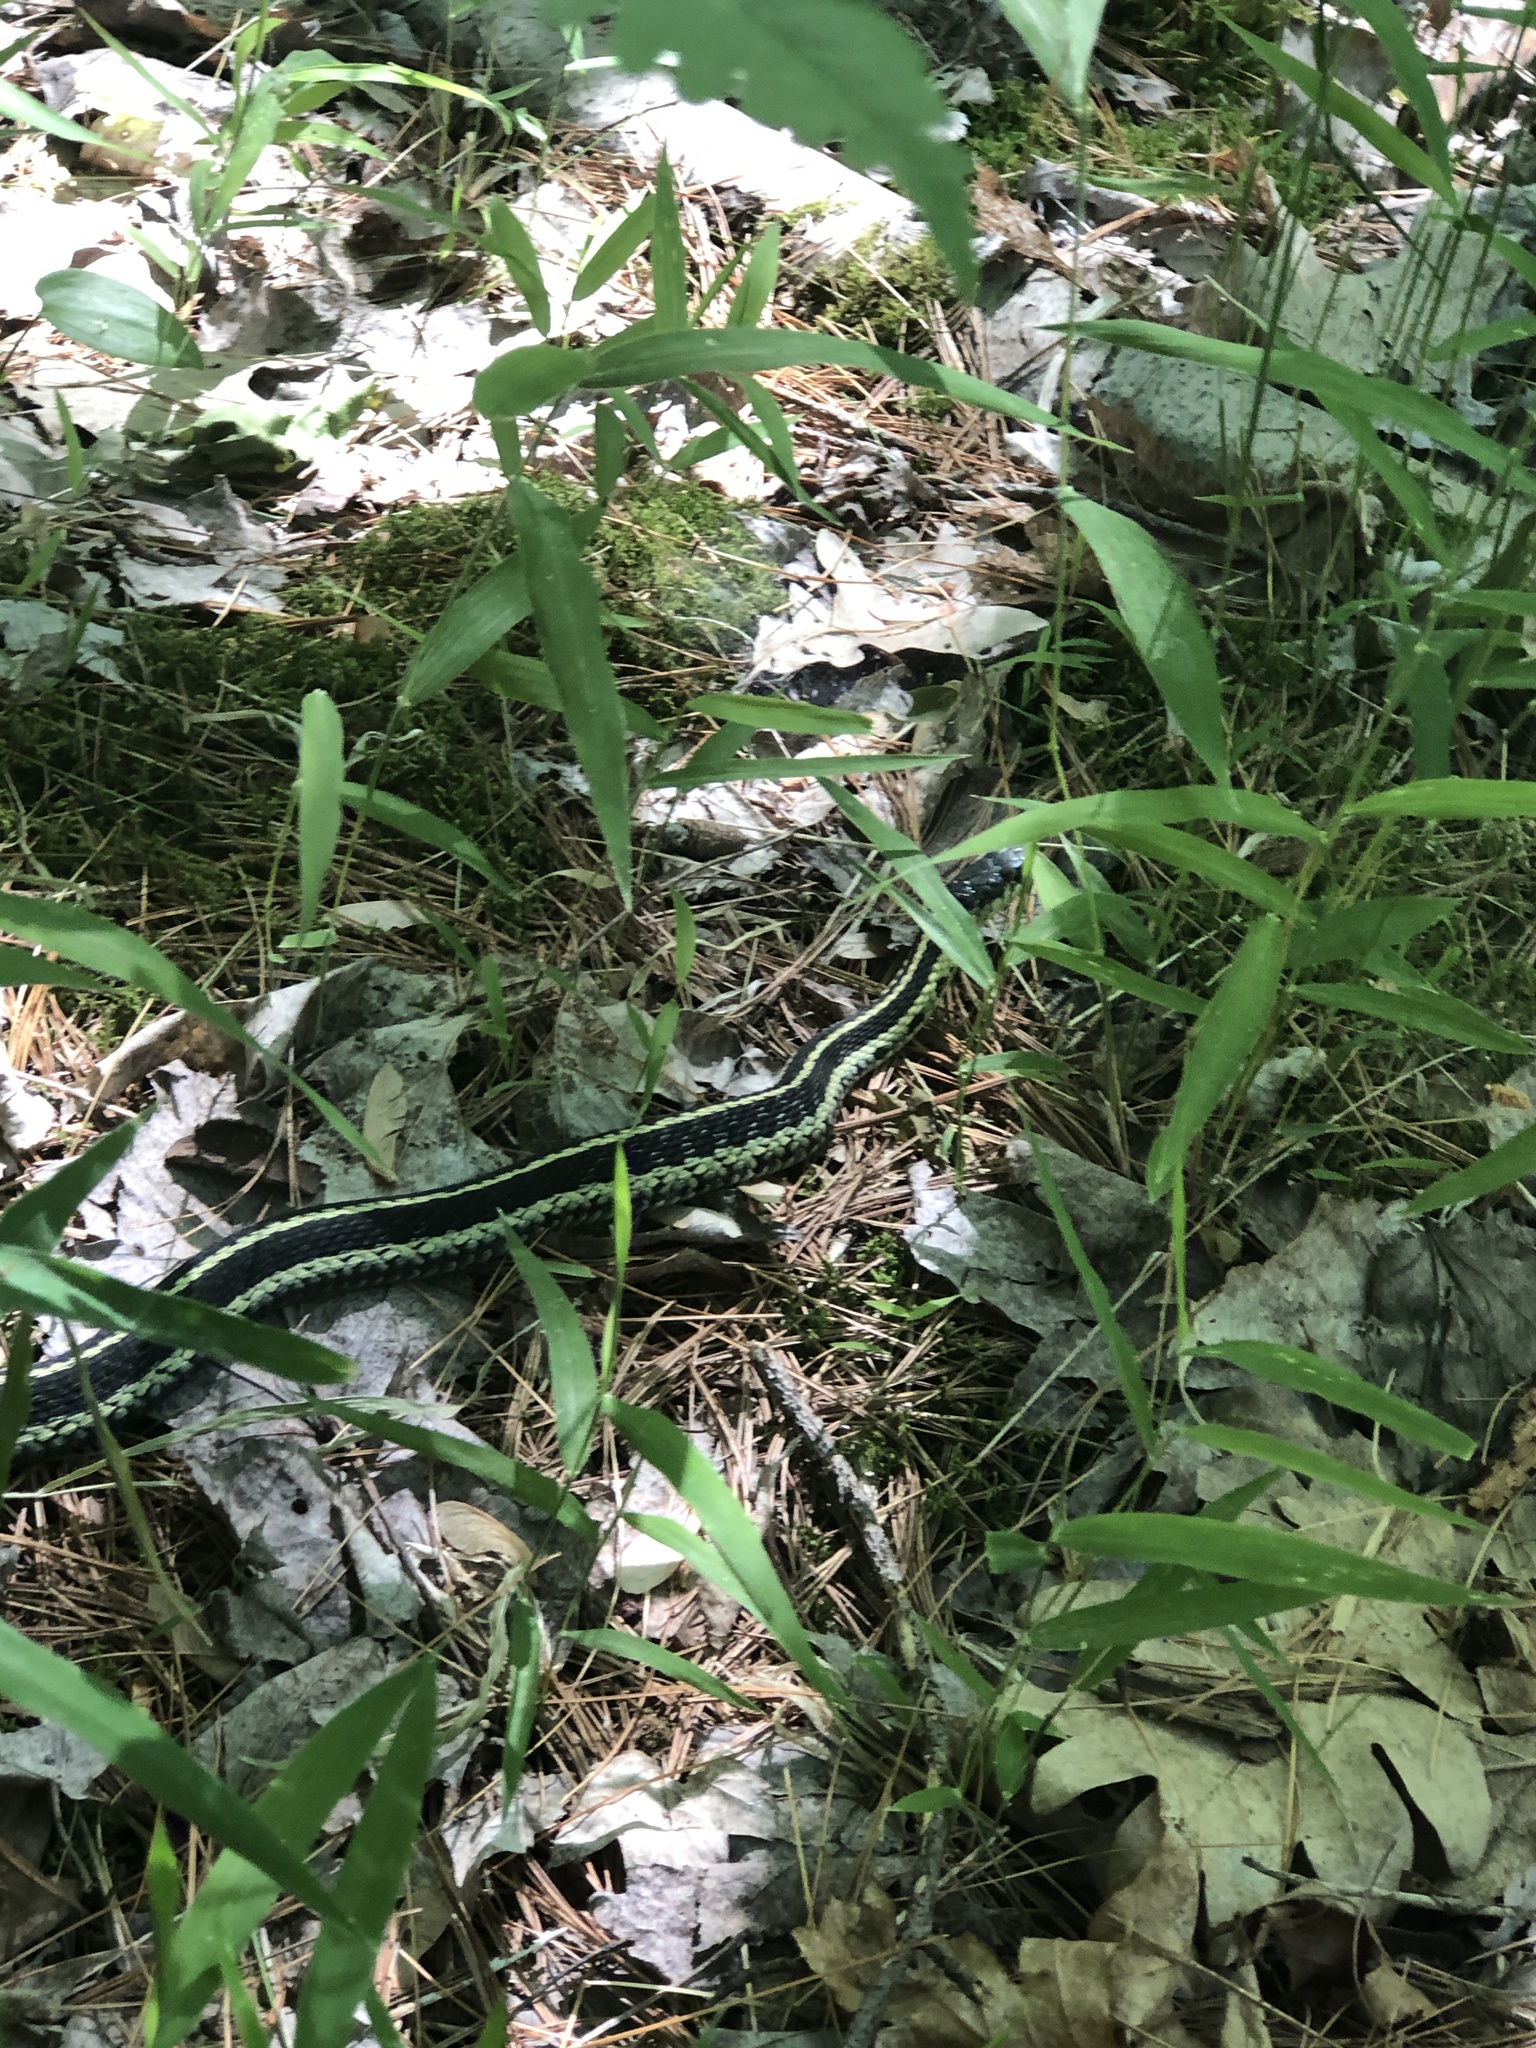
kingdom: Animalia
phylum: Chordata
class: Squamata
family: Colubridae
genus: Thamnophis
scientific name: Thamnophis sirtalis
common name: Common garter snake
